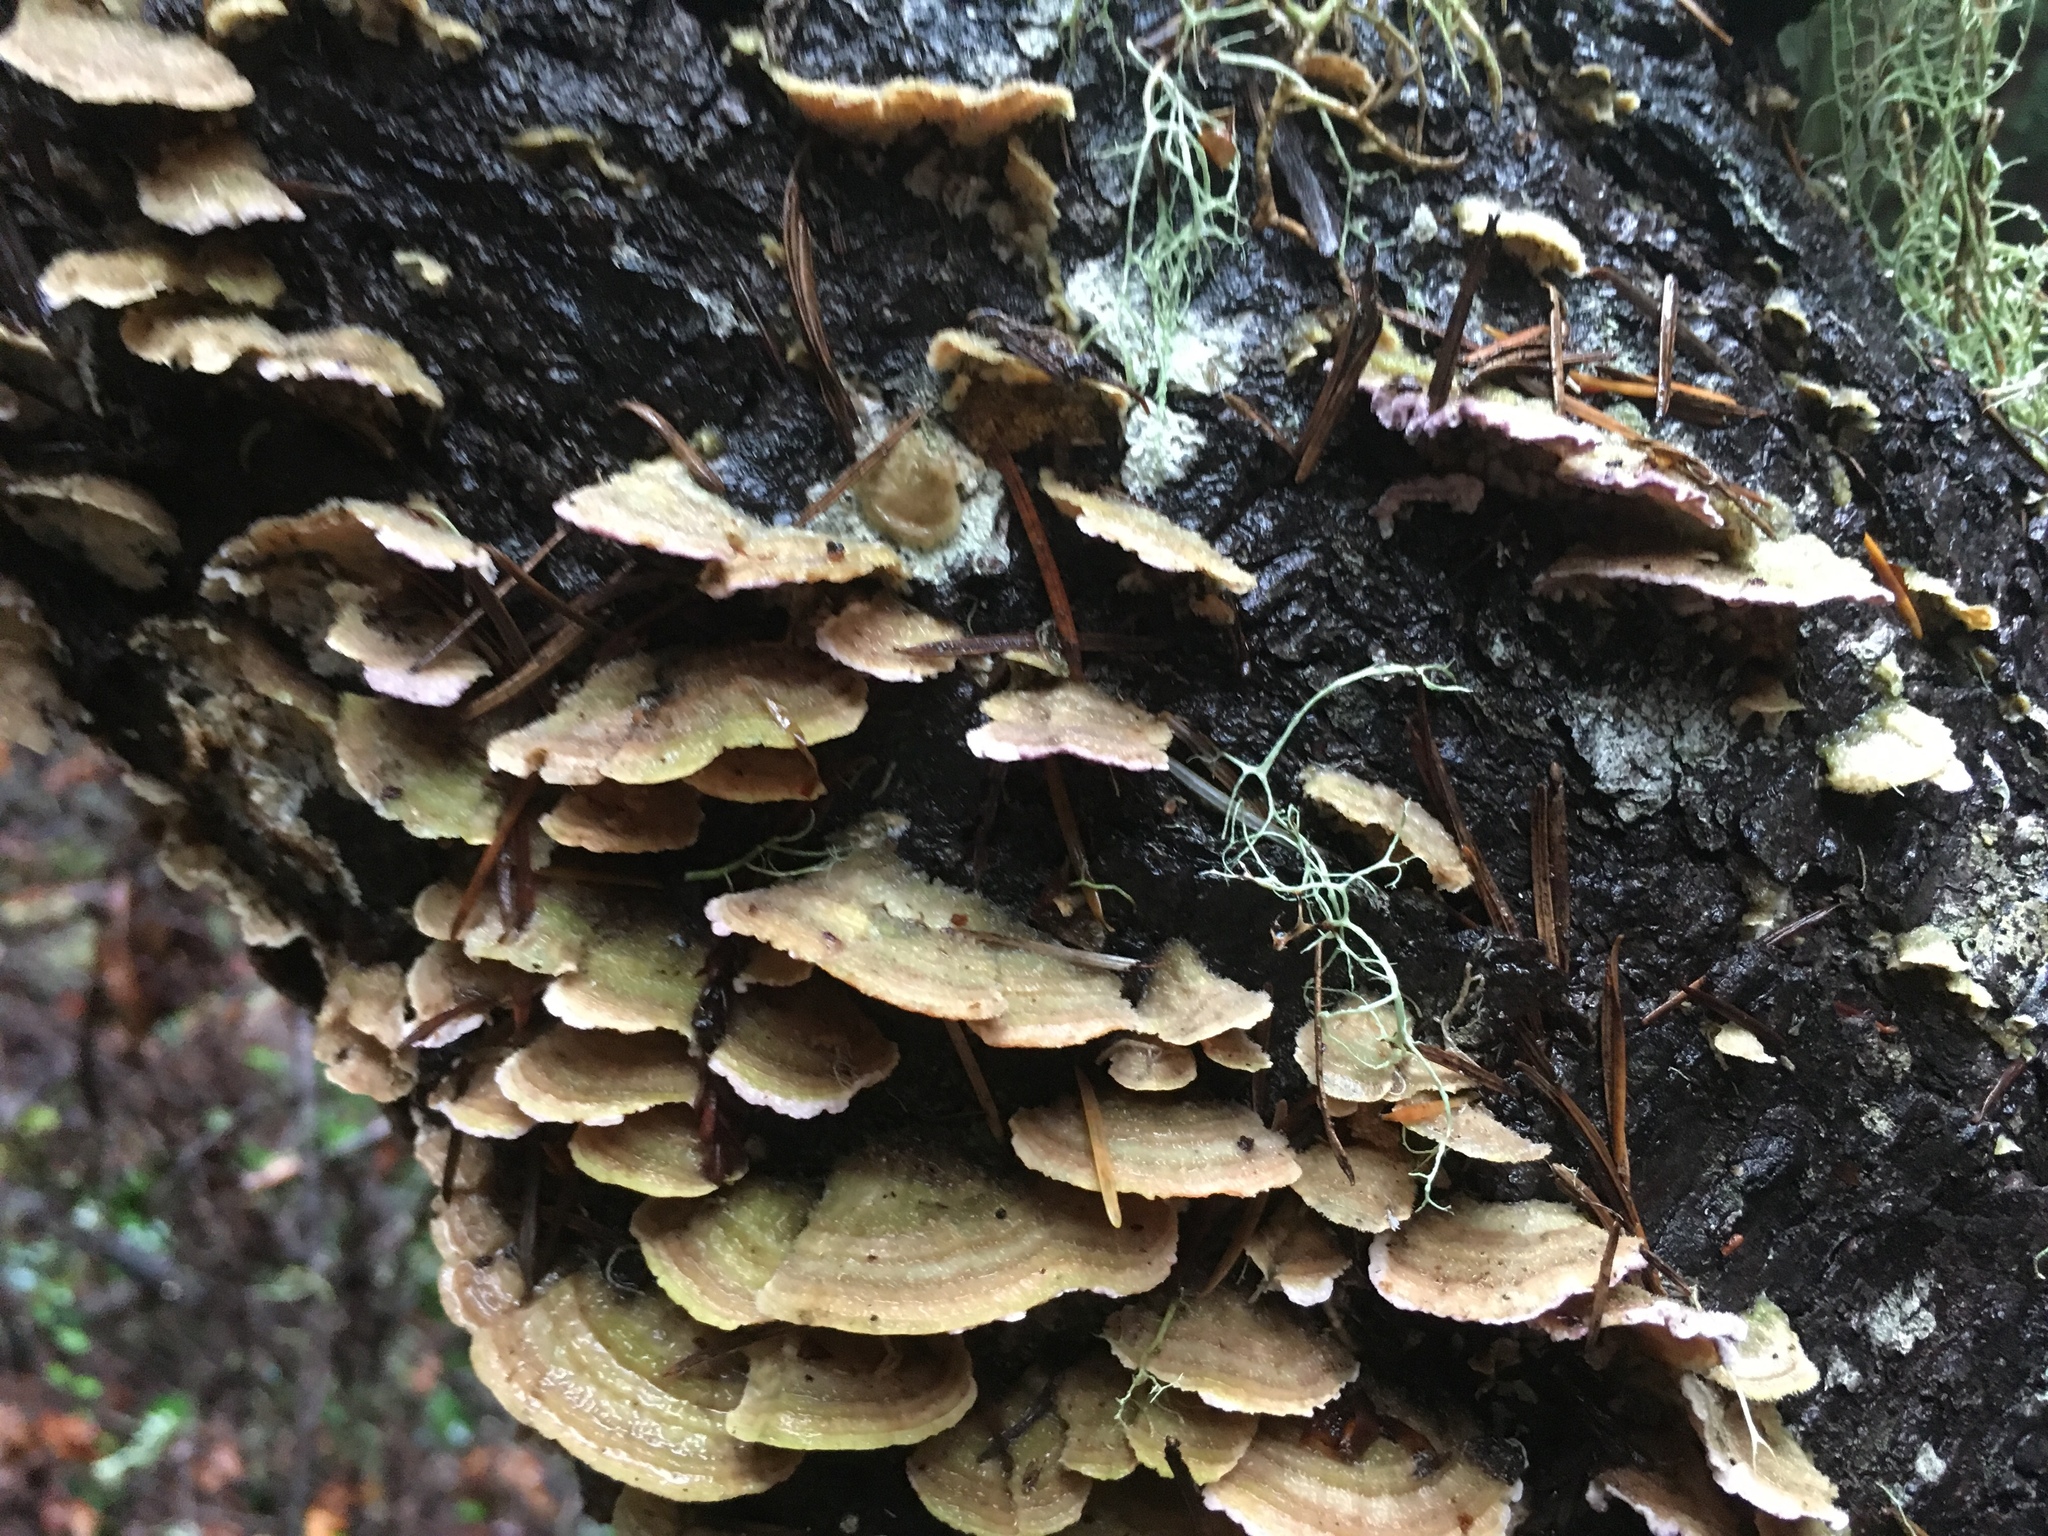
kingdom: Fungi
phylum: Basidiomycota
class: Agaricomycetes
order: Hymenochaetales
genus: Trichaptum
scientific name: Trichaptum abietinum
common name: Purplepore bracket
